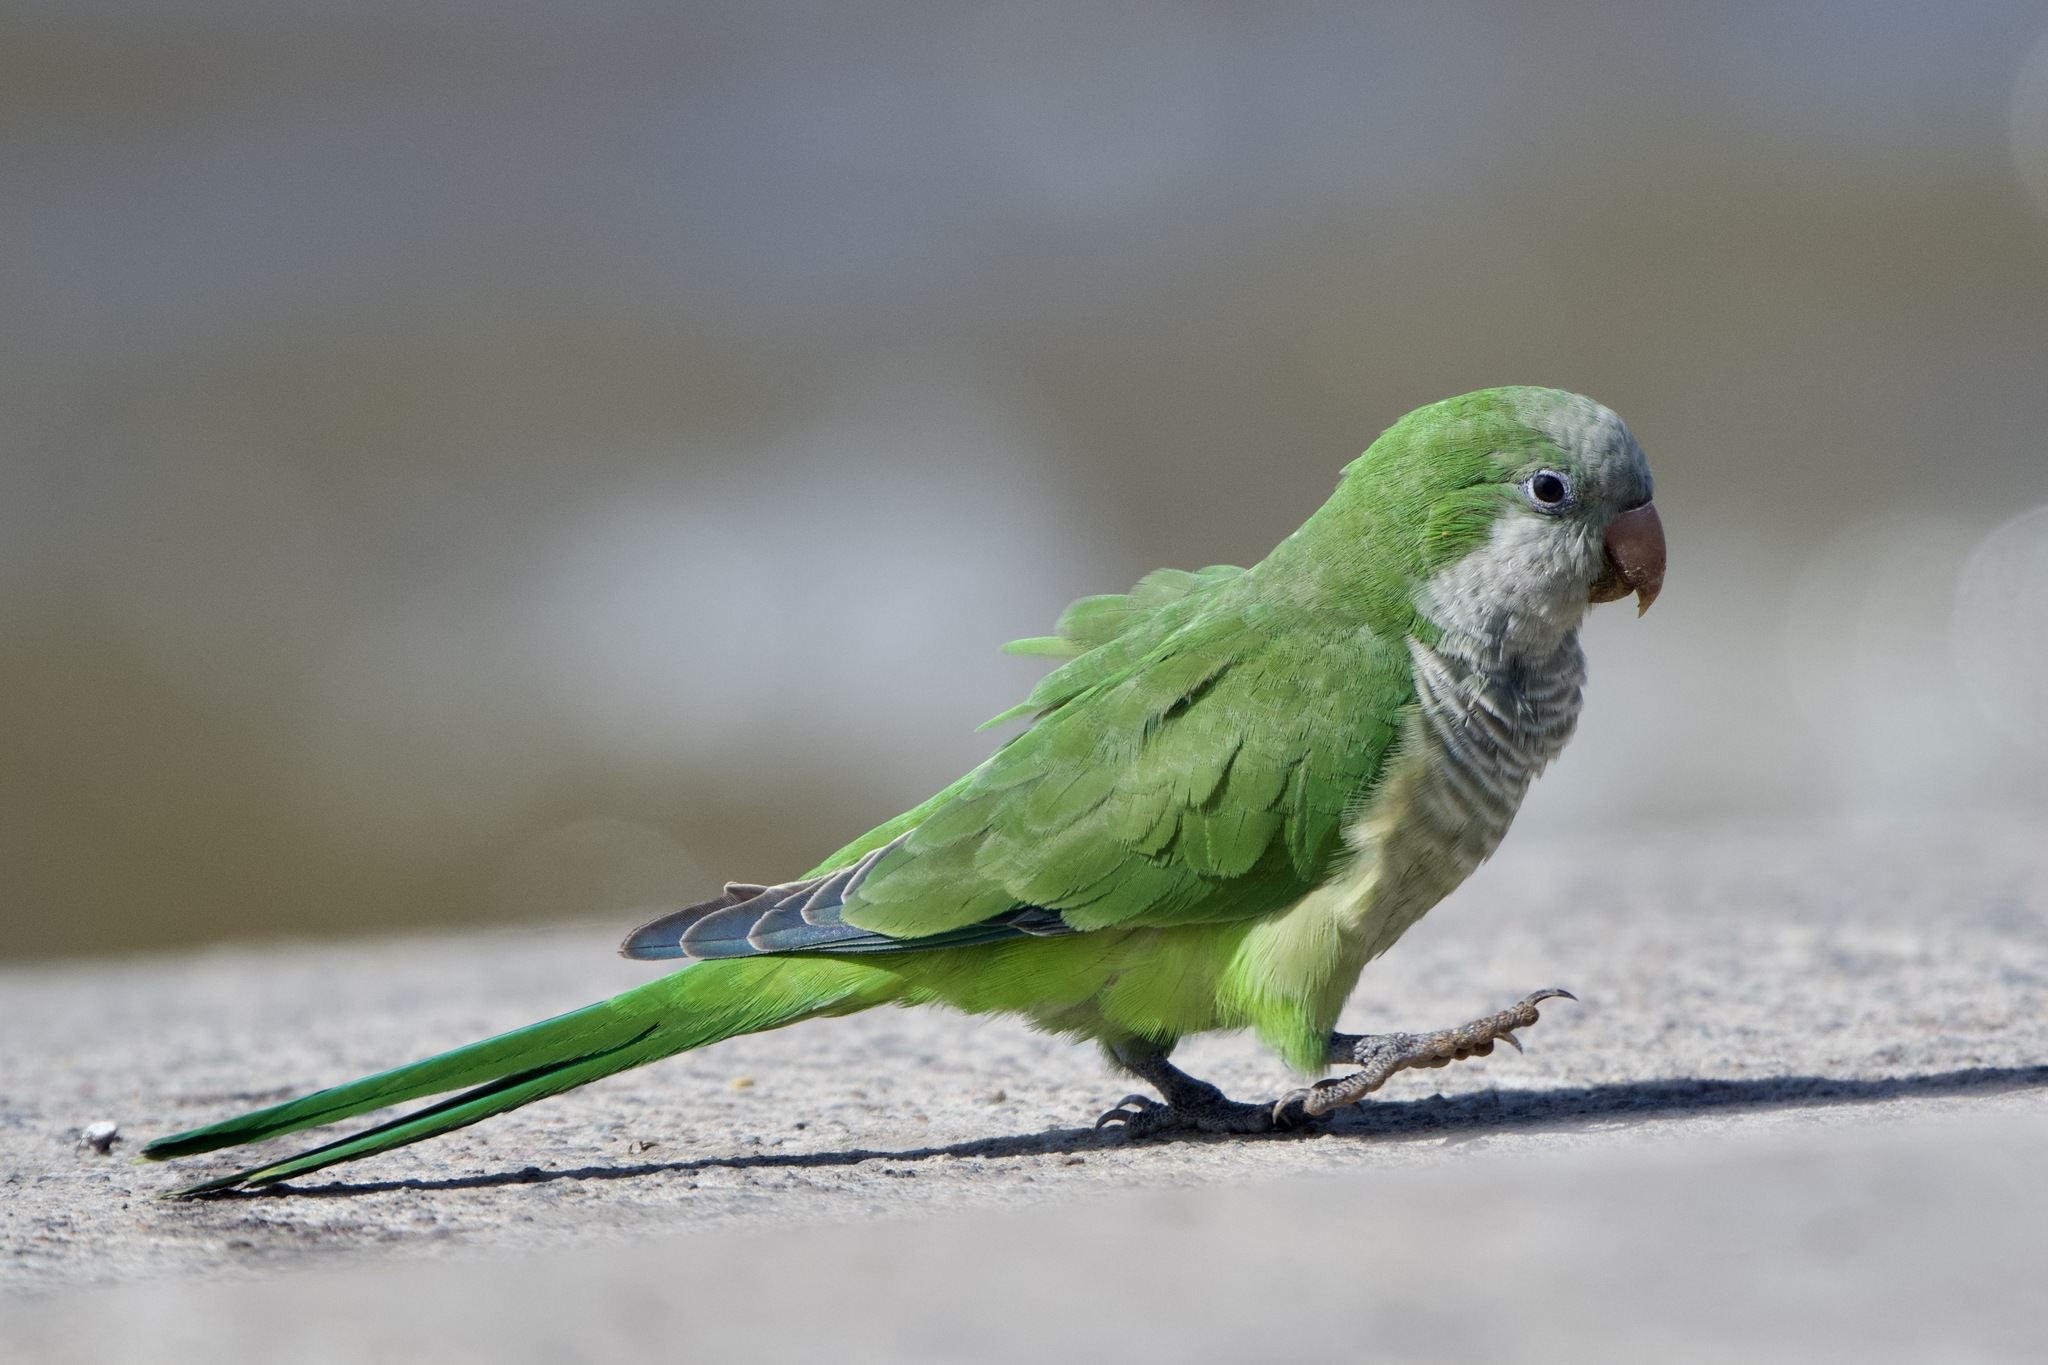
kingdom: Animalia
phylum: Chordata
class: Aves
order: Psittaciformes
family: Psittacidae
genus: Myiopsitta
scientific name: Myiopsitta monachus
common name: Monk parakeet
